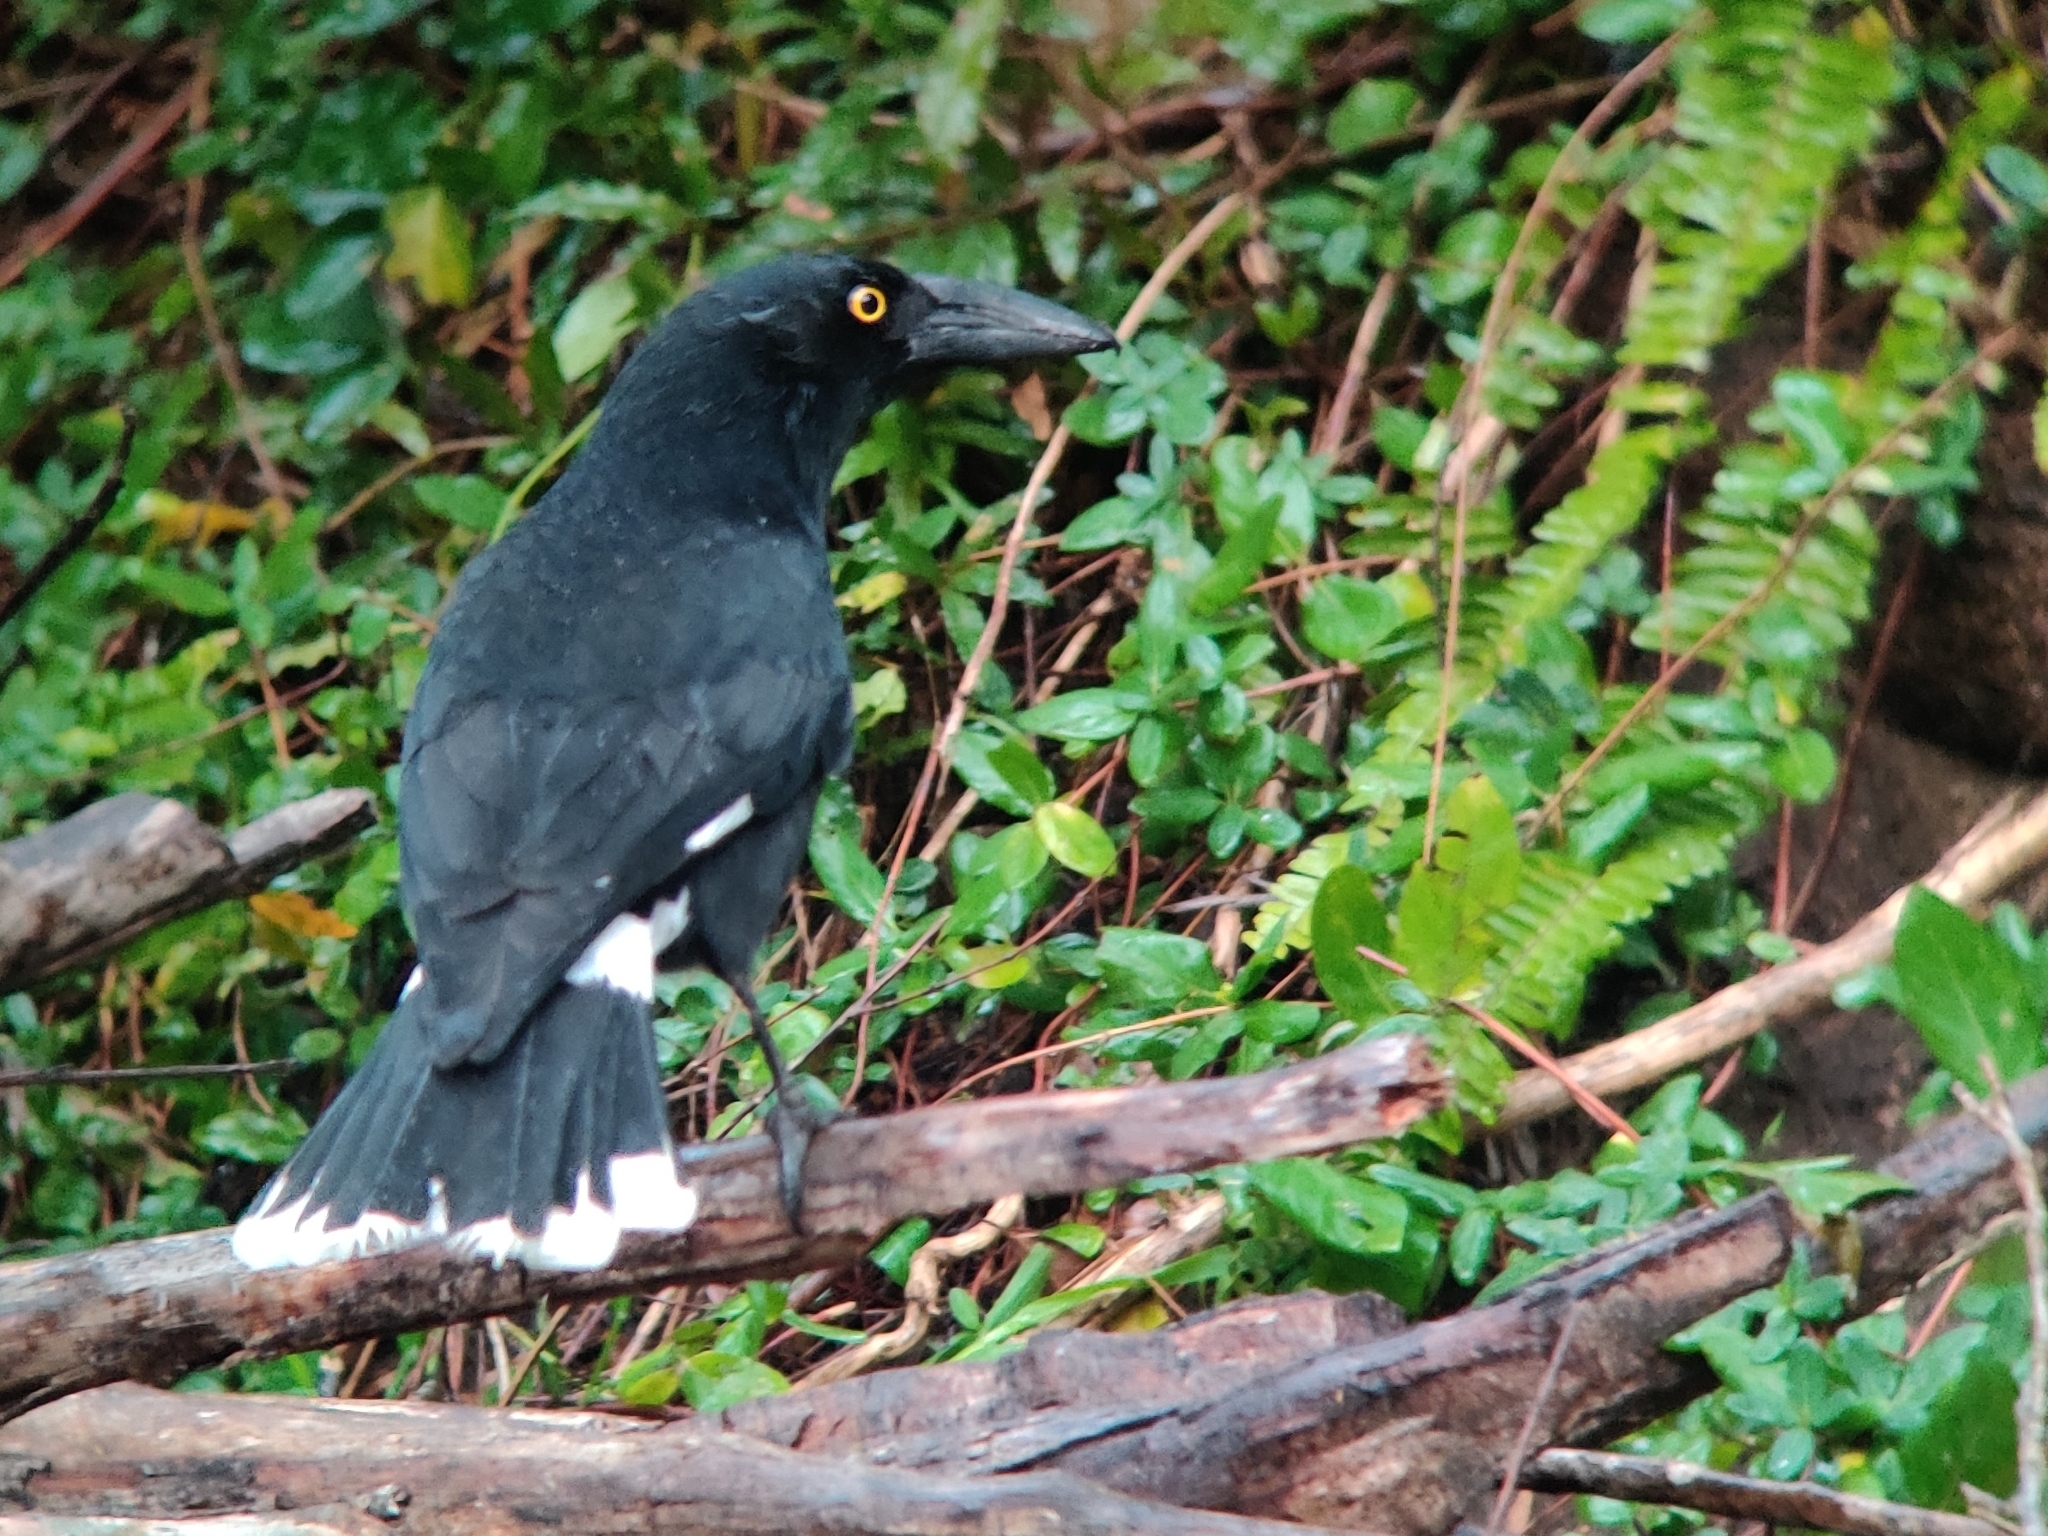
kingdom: Animalia
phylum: Chordata
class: Aves
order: Passeriformes
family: Cracticidae
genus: Strepera
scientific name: Strepera graculina
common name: Pied currawong
